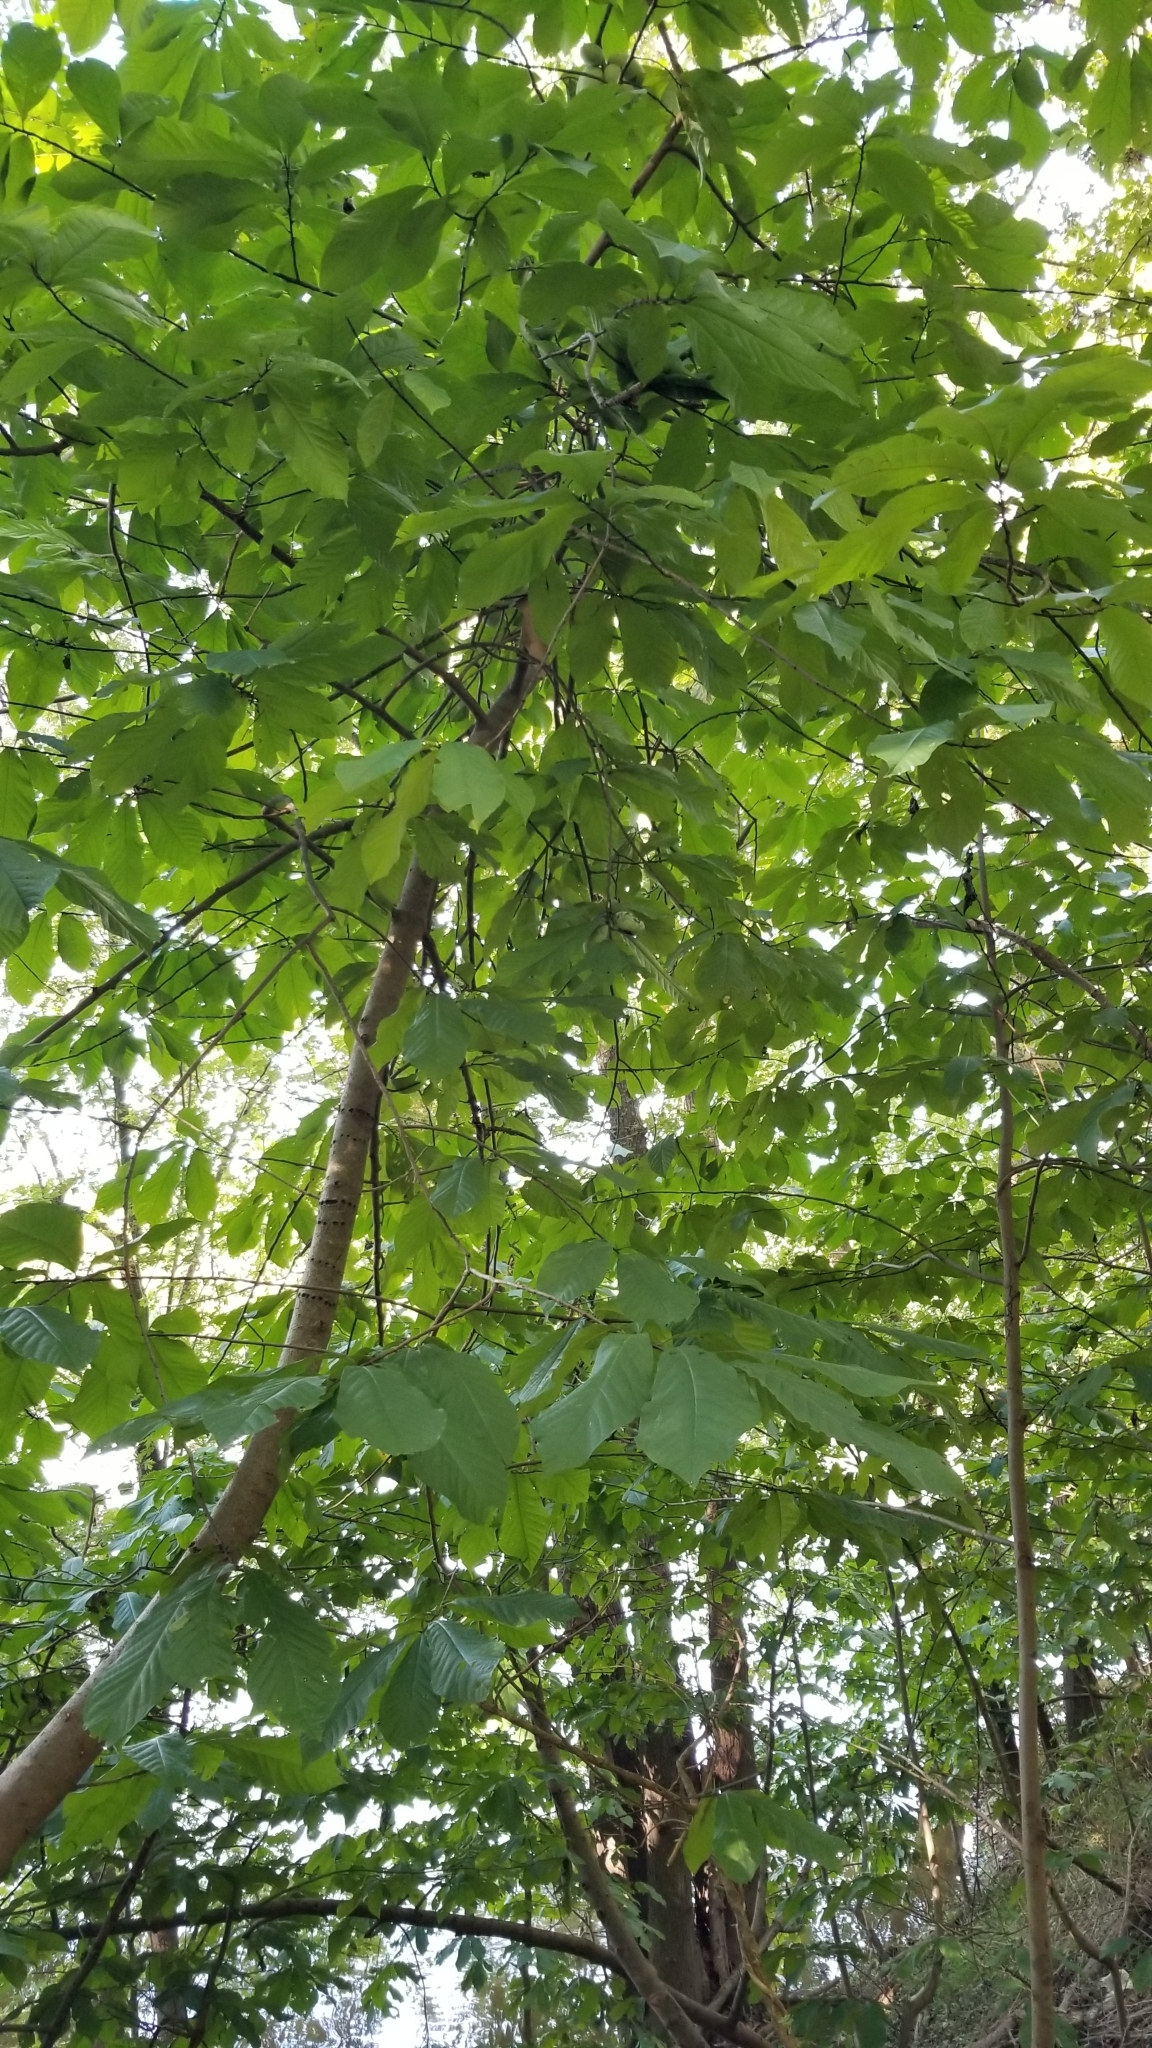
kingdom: Plantae
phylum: Tracheophyta
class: Magnoliopsida
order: Magnoliales
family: Annonaceae
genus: Asimina
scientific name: Asimina triloba
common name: Dog-banana
